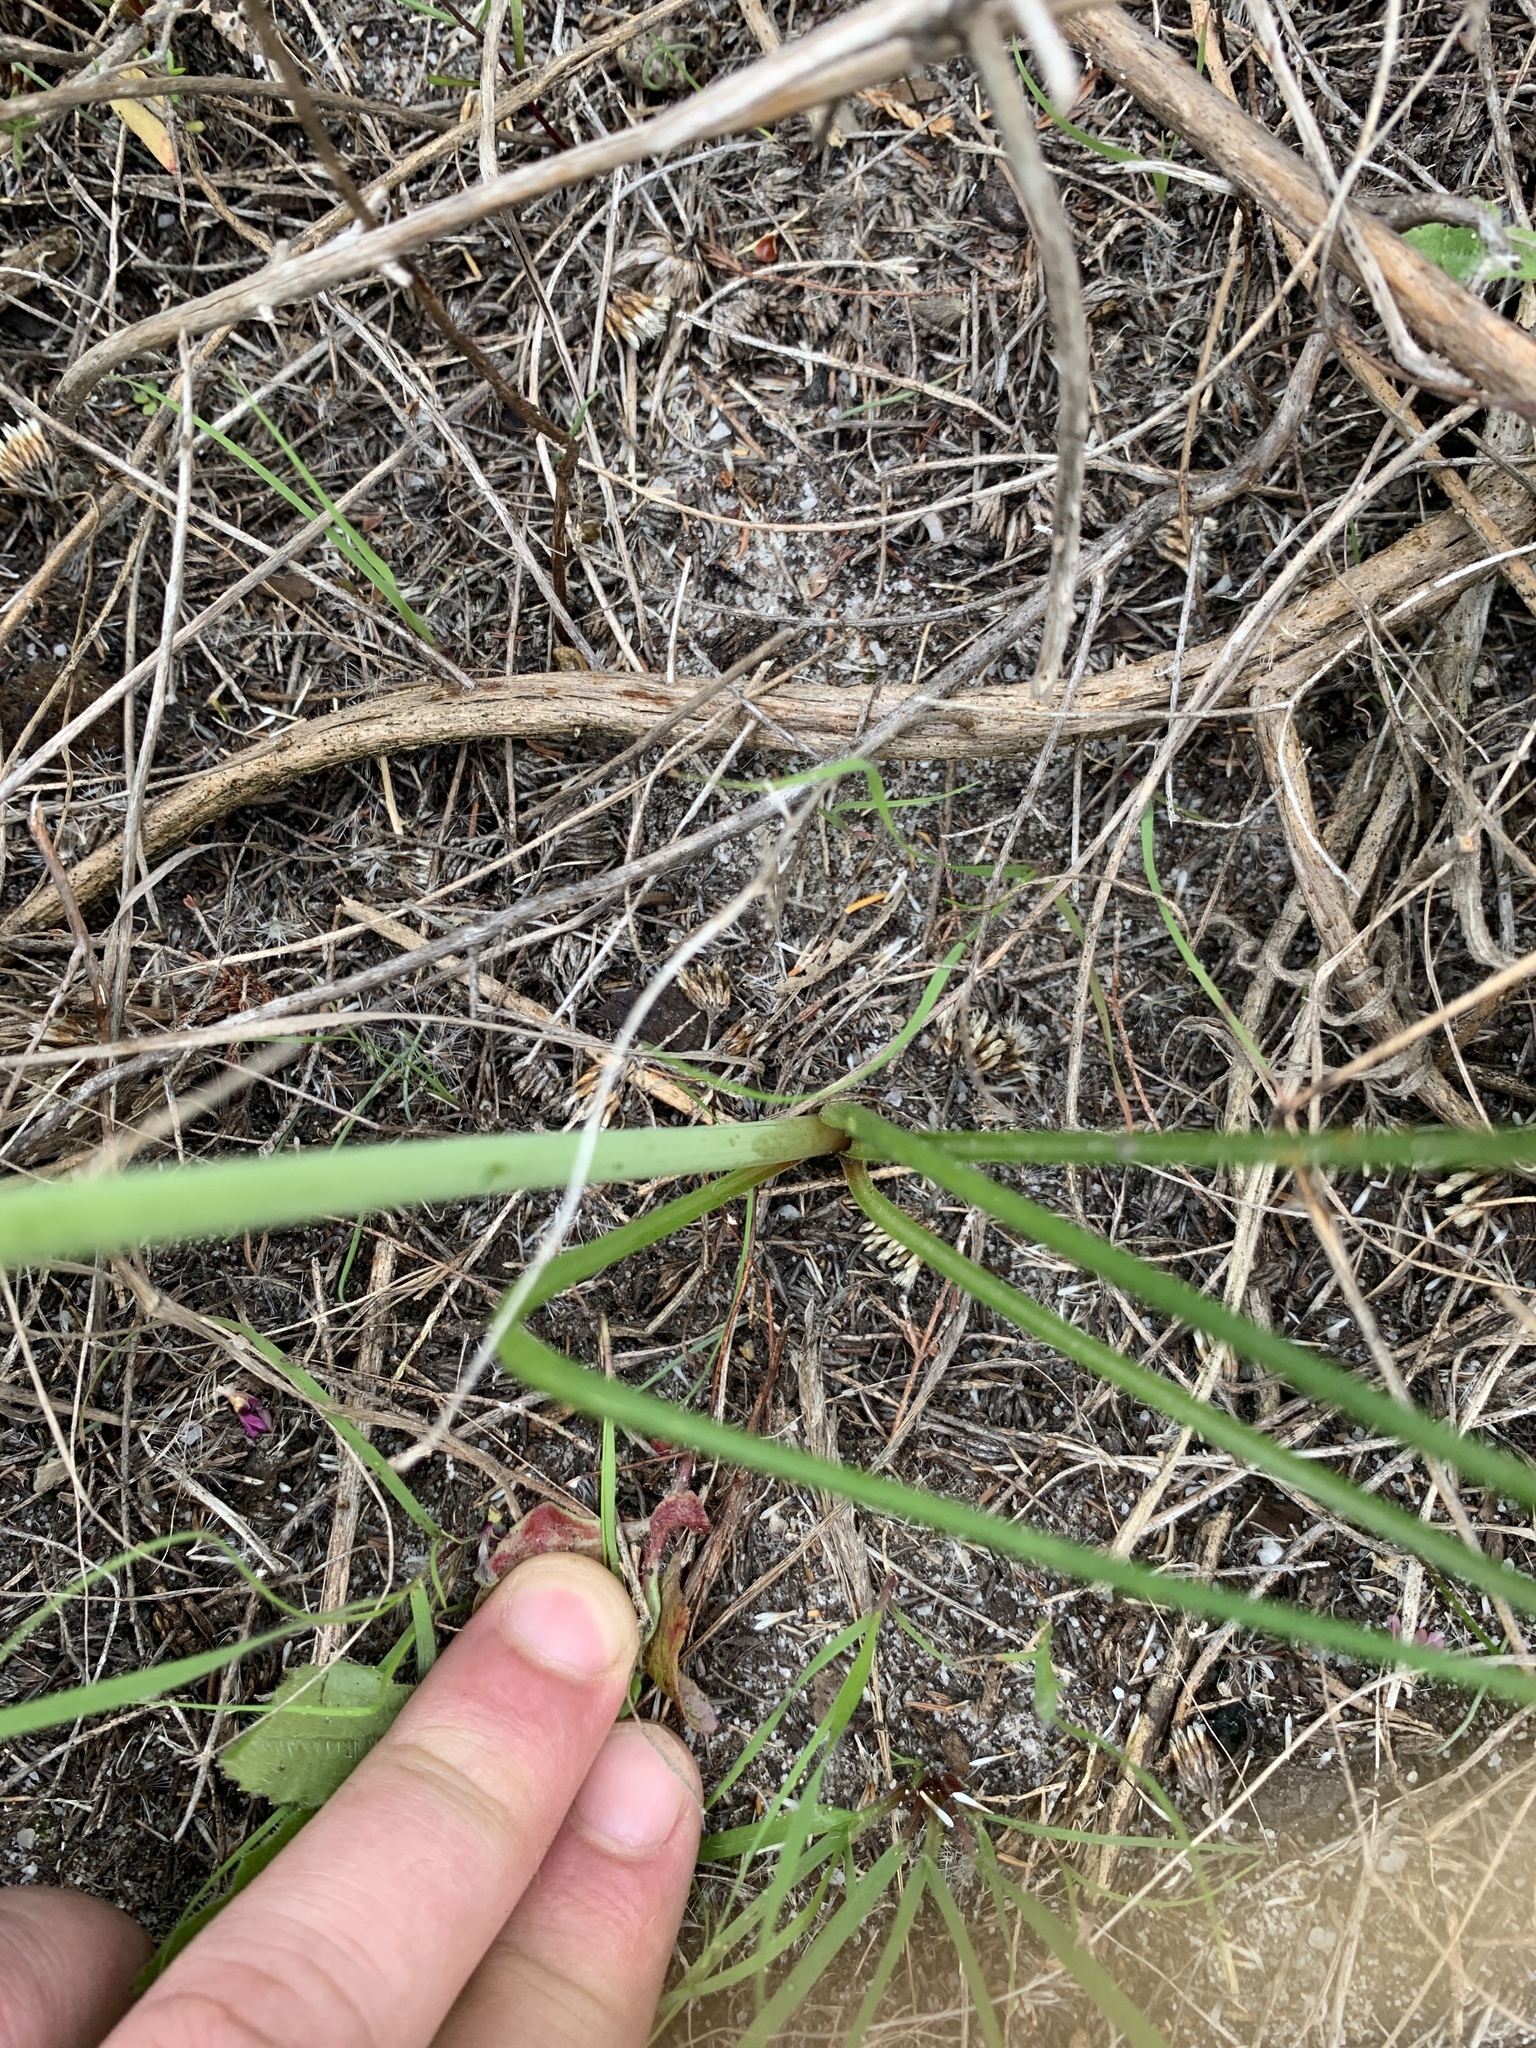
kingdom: Plantae
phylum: Tracheophyta
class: Liliopsida
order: Asparagales
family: Asparagaceae
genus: Albuca
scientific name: Albuca cooperi
